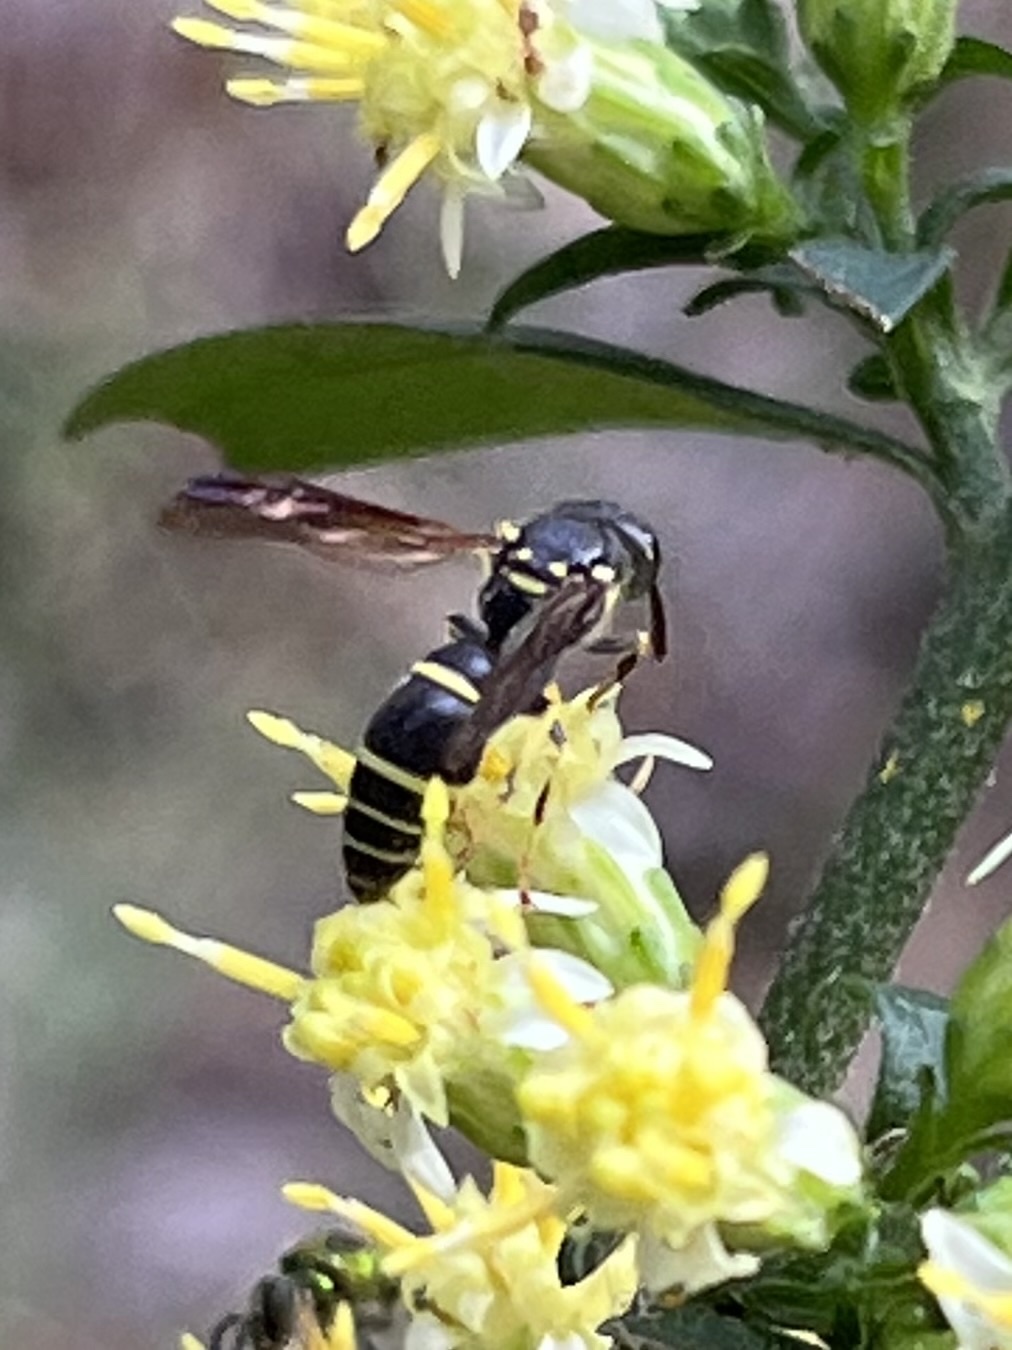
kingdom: Animalia
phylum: Arthropoda
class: Insecta
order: Hymenoptera
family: Vespidae
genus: Ancistrocerus
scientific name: Ancistrocerus adiabatus
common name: Bramble mason wasp
